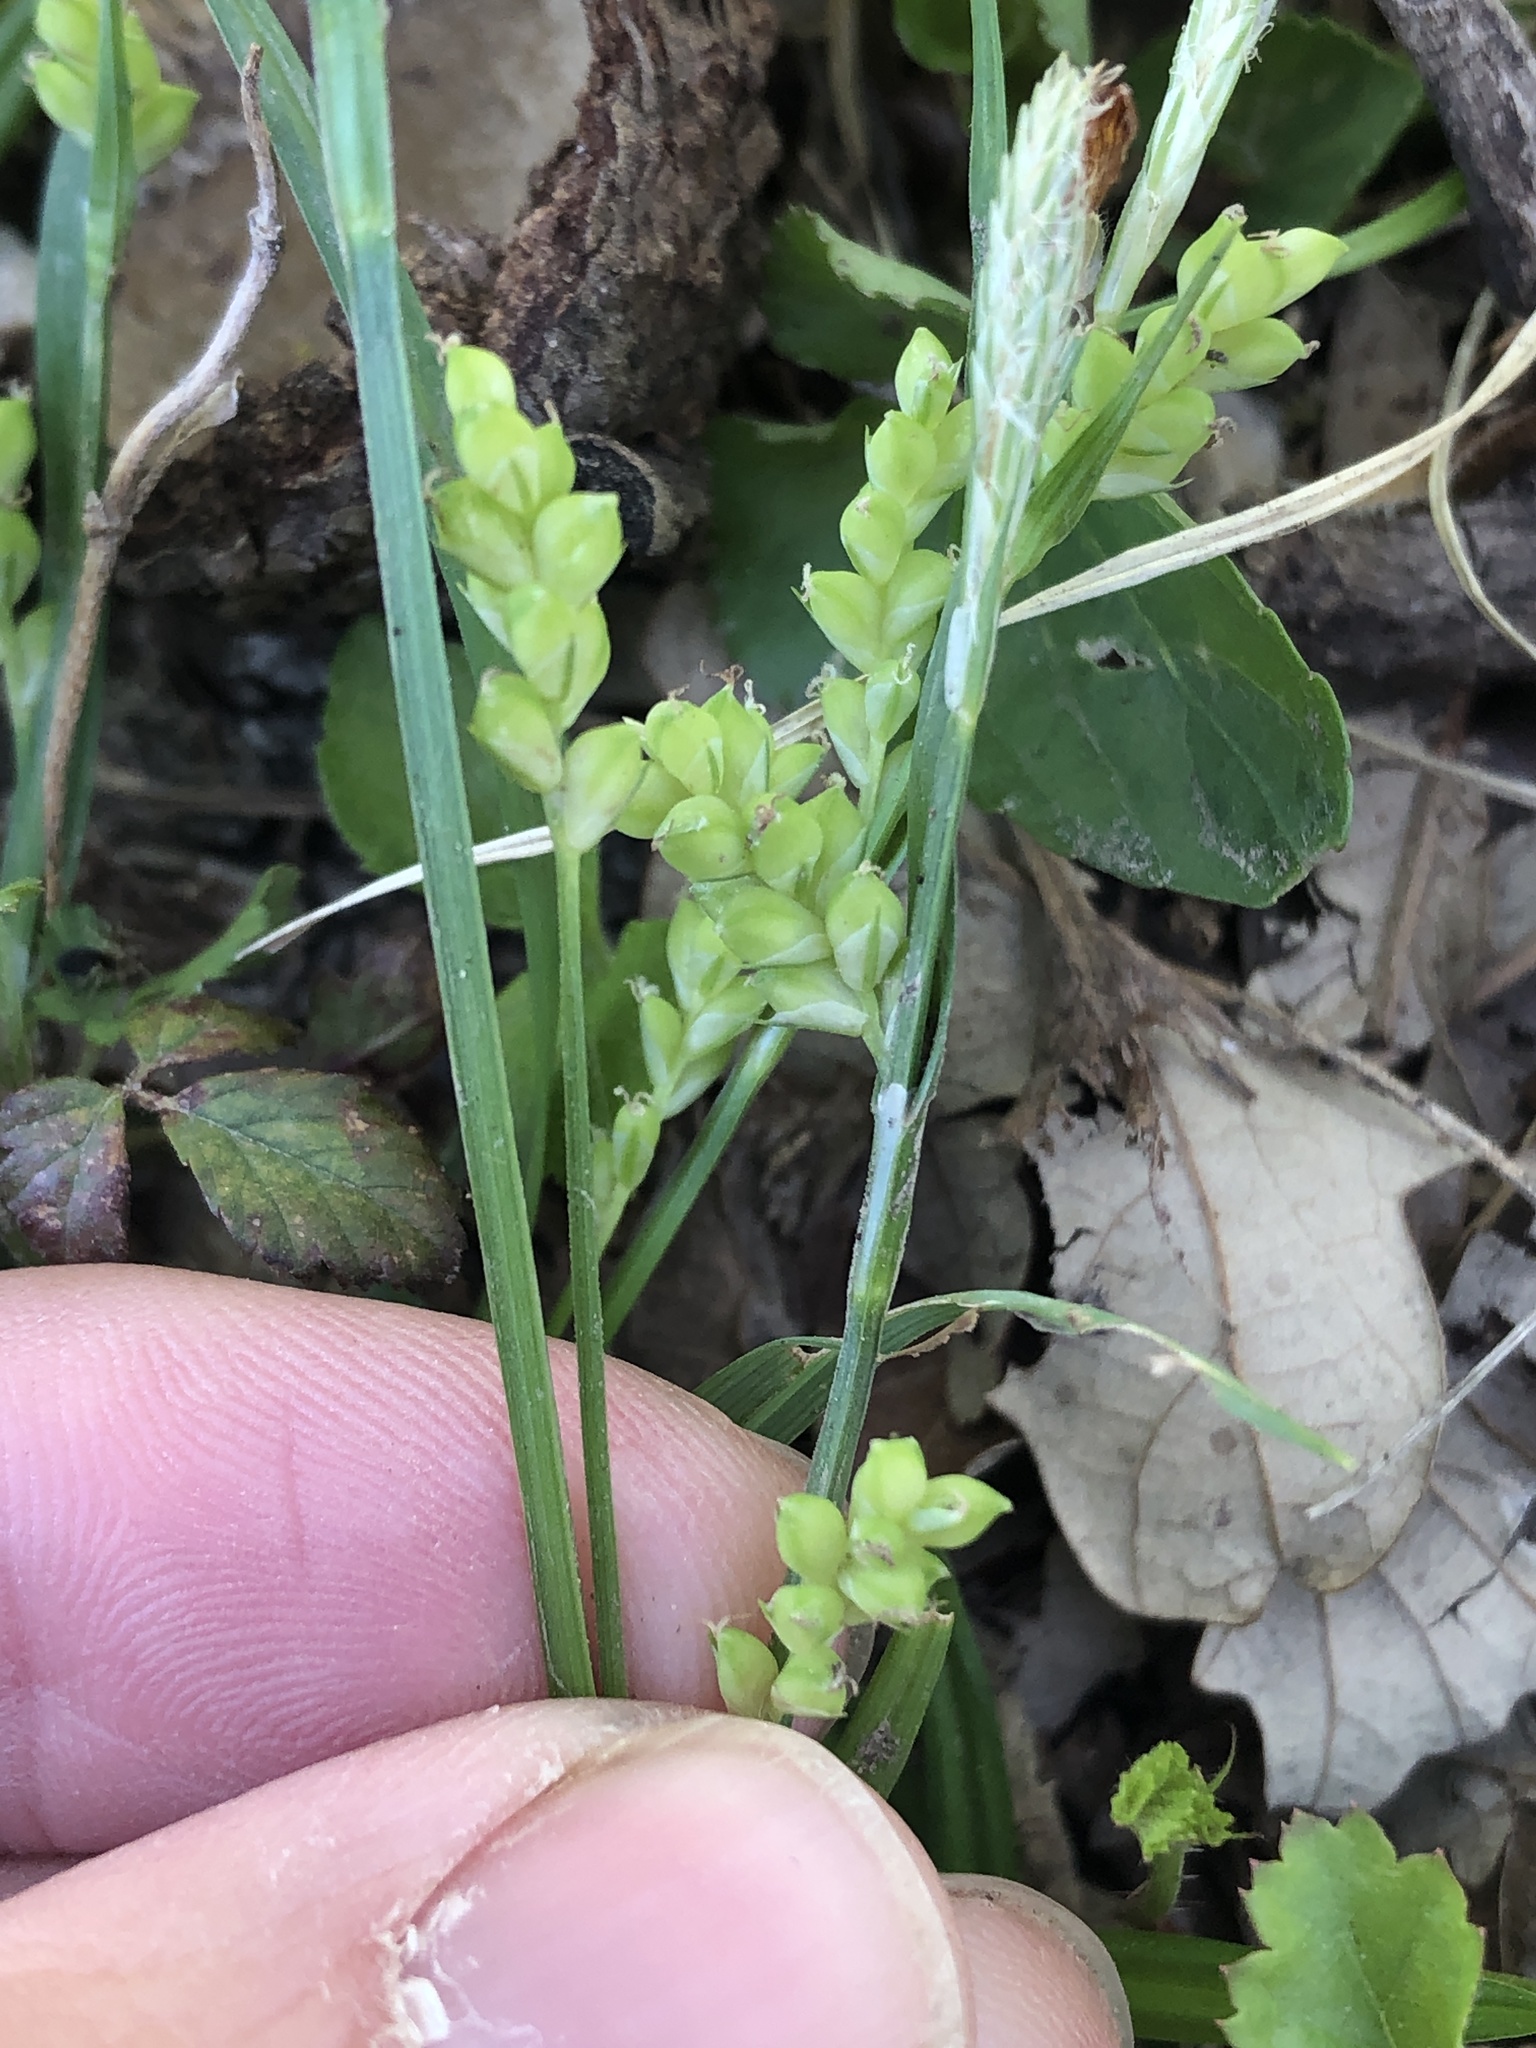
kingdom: Plantae
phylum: Tracheophyta
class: Liliopsida
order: Poales
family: Cyperaceae
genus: Carex
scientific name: Carex blanda
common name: Bland sedge
